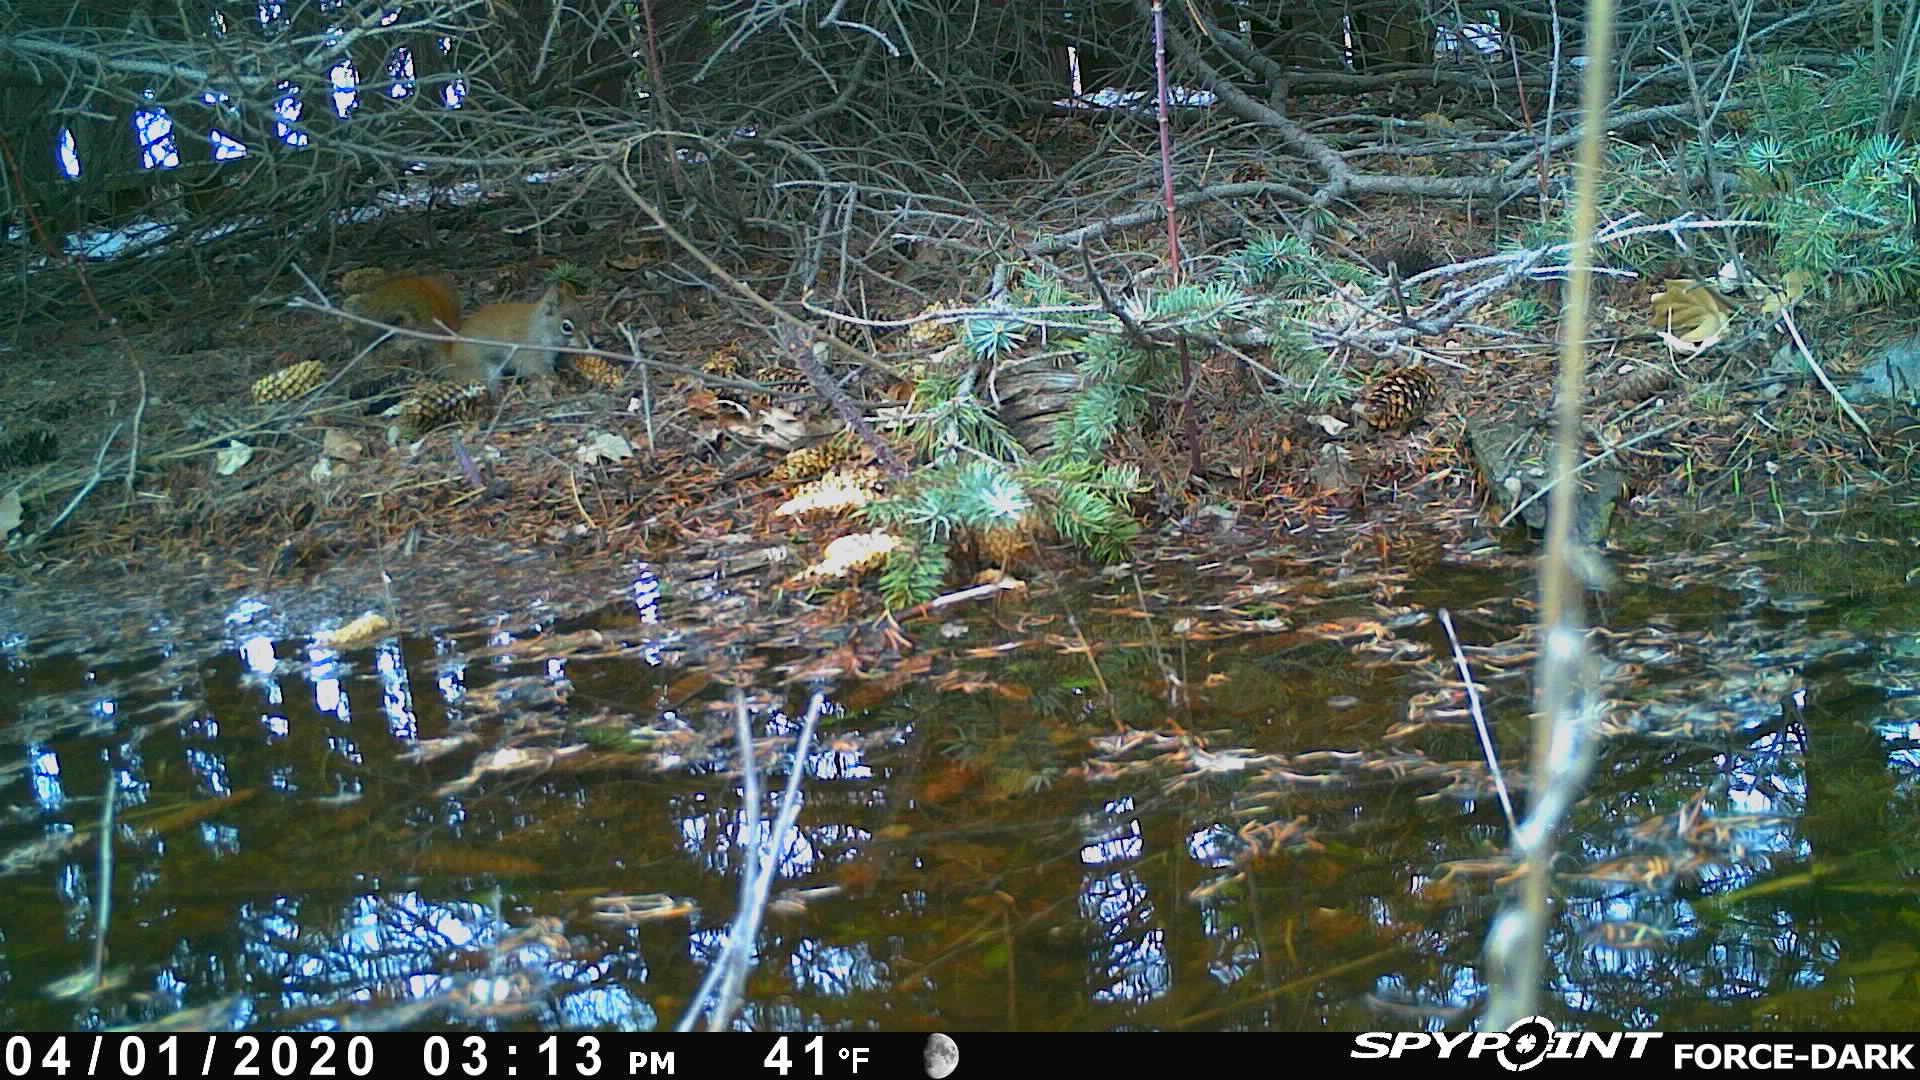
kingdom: Animalia
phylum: Chordata
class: Mammalia
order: Rodentia
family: Sciuridae
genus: Tamiasciurus
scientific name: Tamiasciurus hudsonicus
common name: Red squirrel
